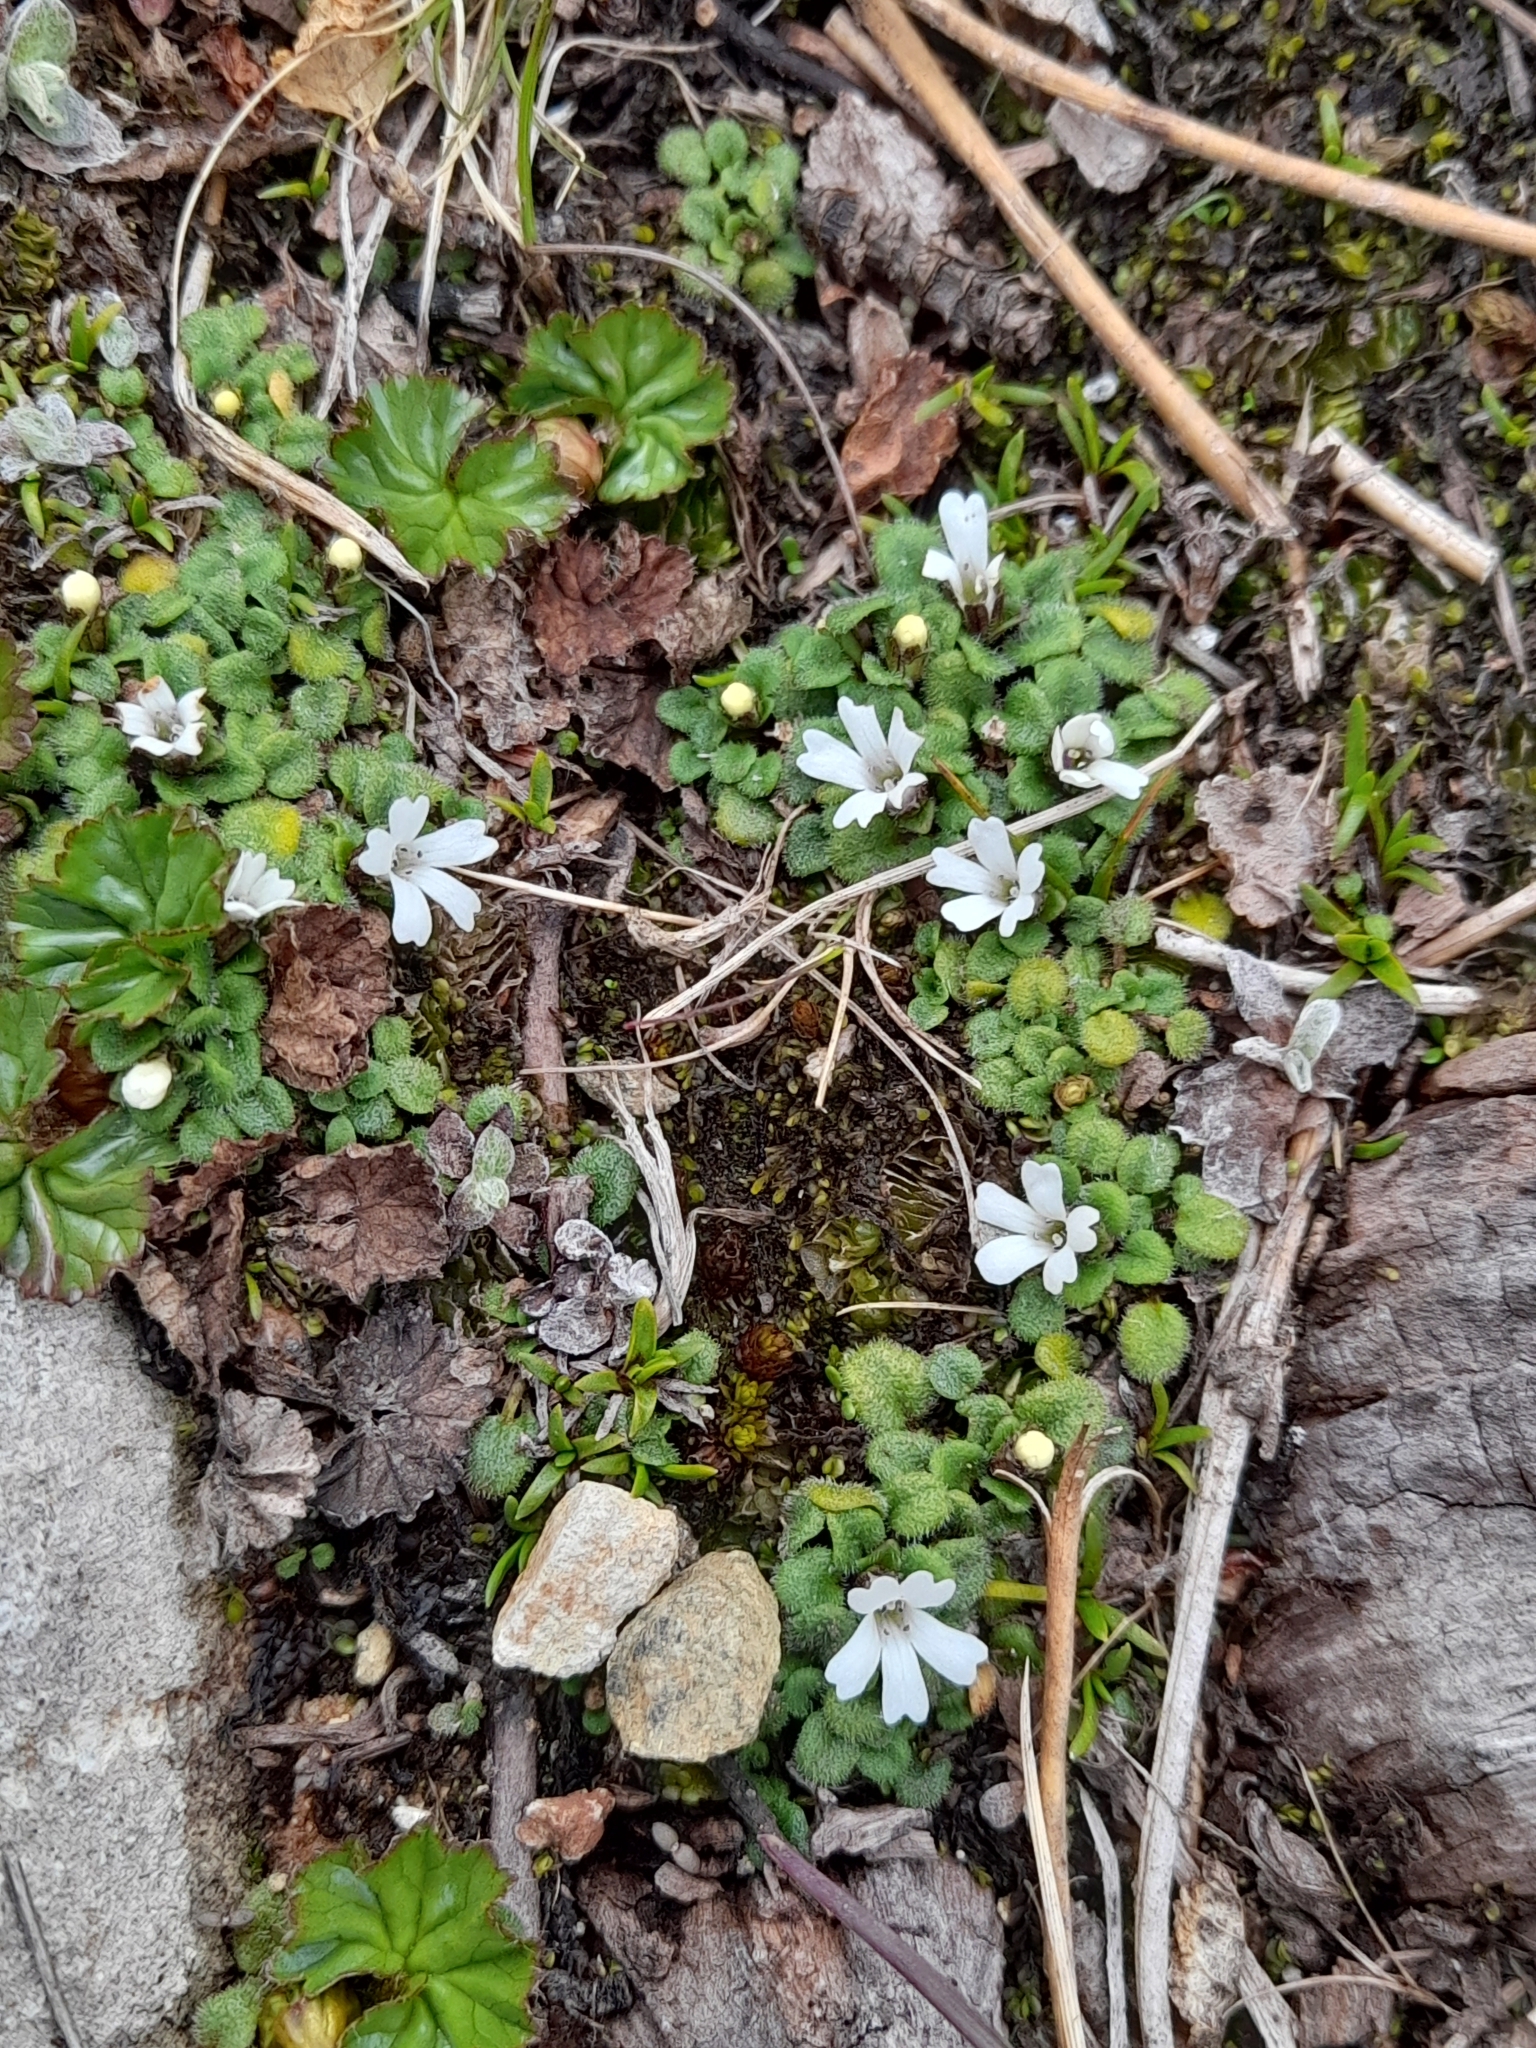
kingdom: Plantae
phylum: Tracheophyta
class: Magnoliopsida
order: Lamiales
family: Plantaginaceae
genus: Ourisia
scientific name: Ourisia fuegiana
